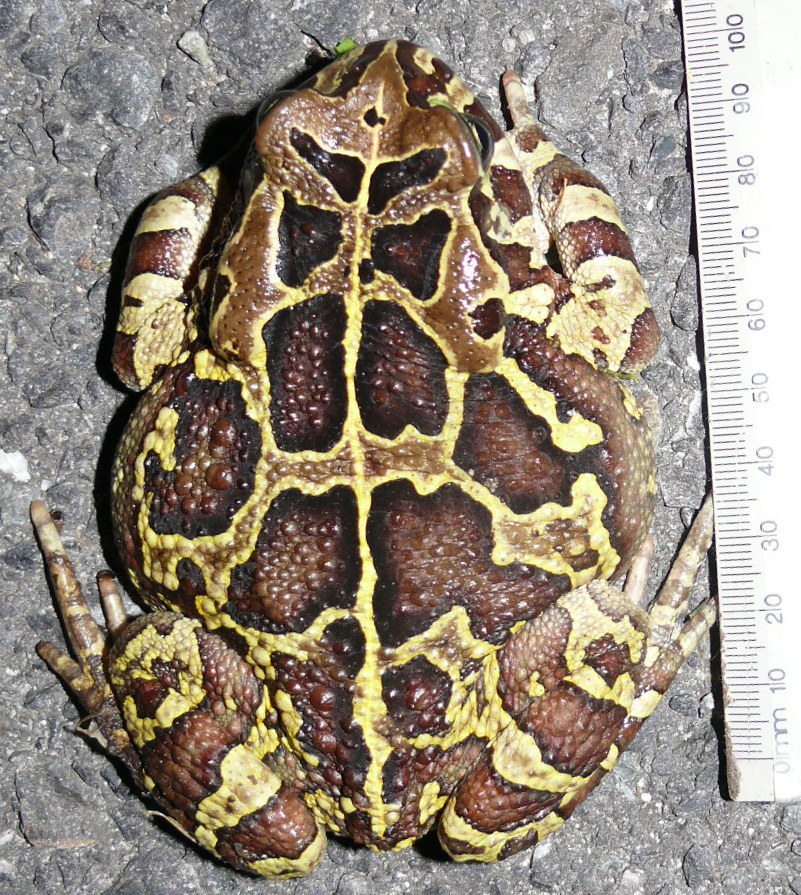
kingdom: Animalia
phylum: Chordata
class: Amphibia
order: Anura
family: Bufonidae
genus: Sclerophrys
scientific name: Sclerophrys pantherina
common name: Panther toad
